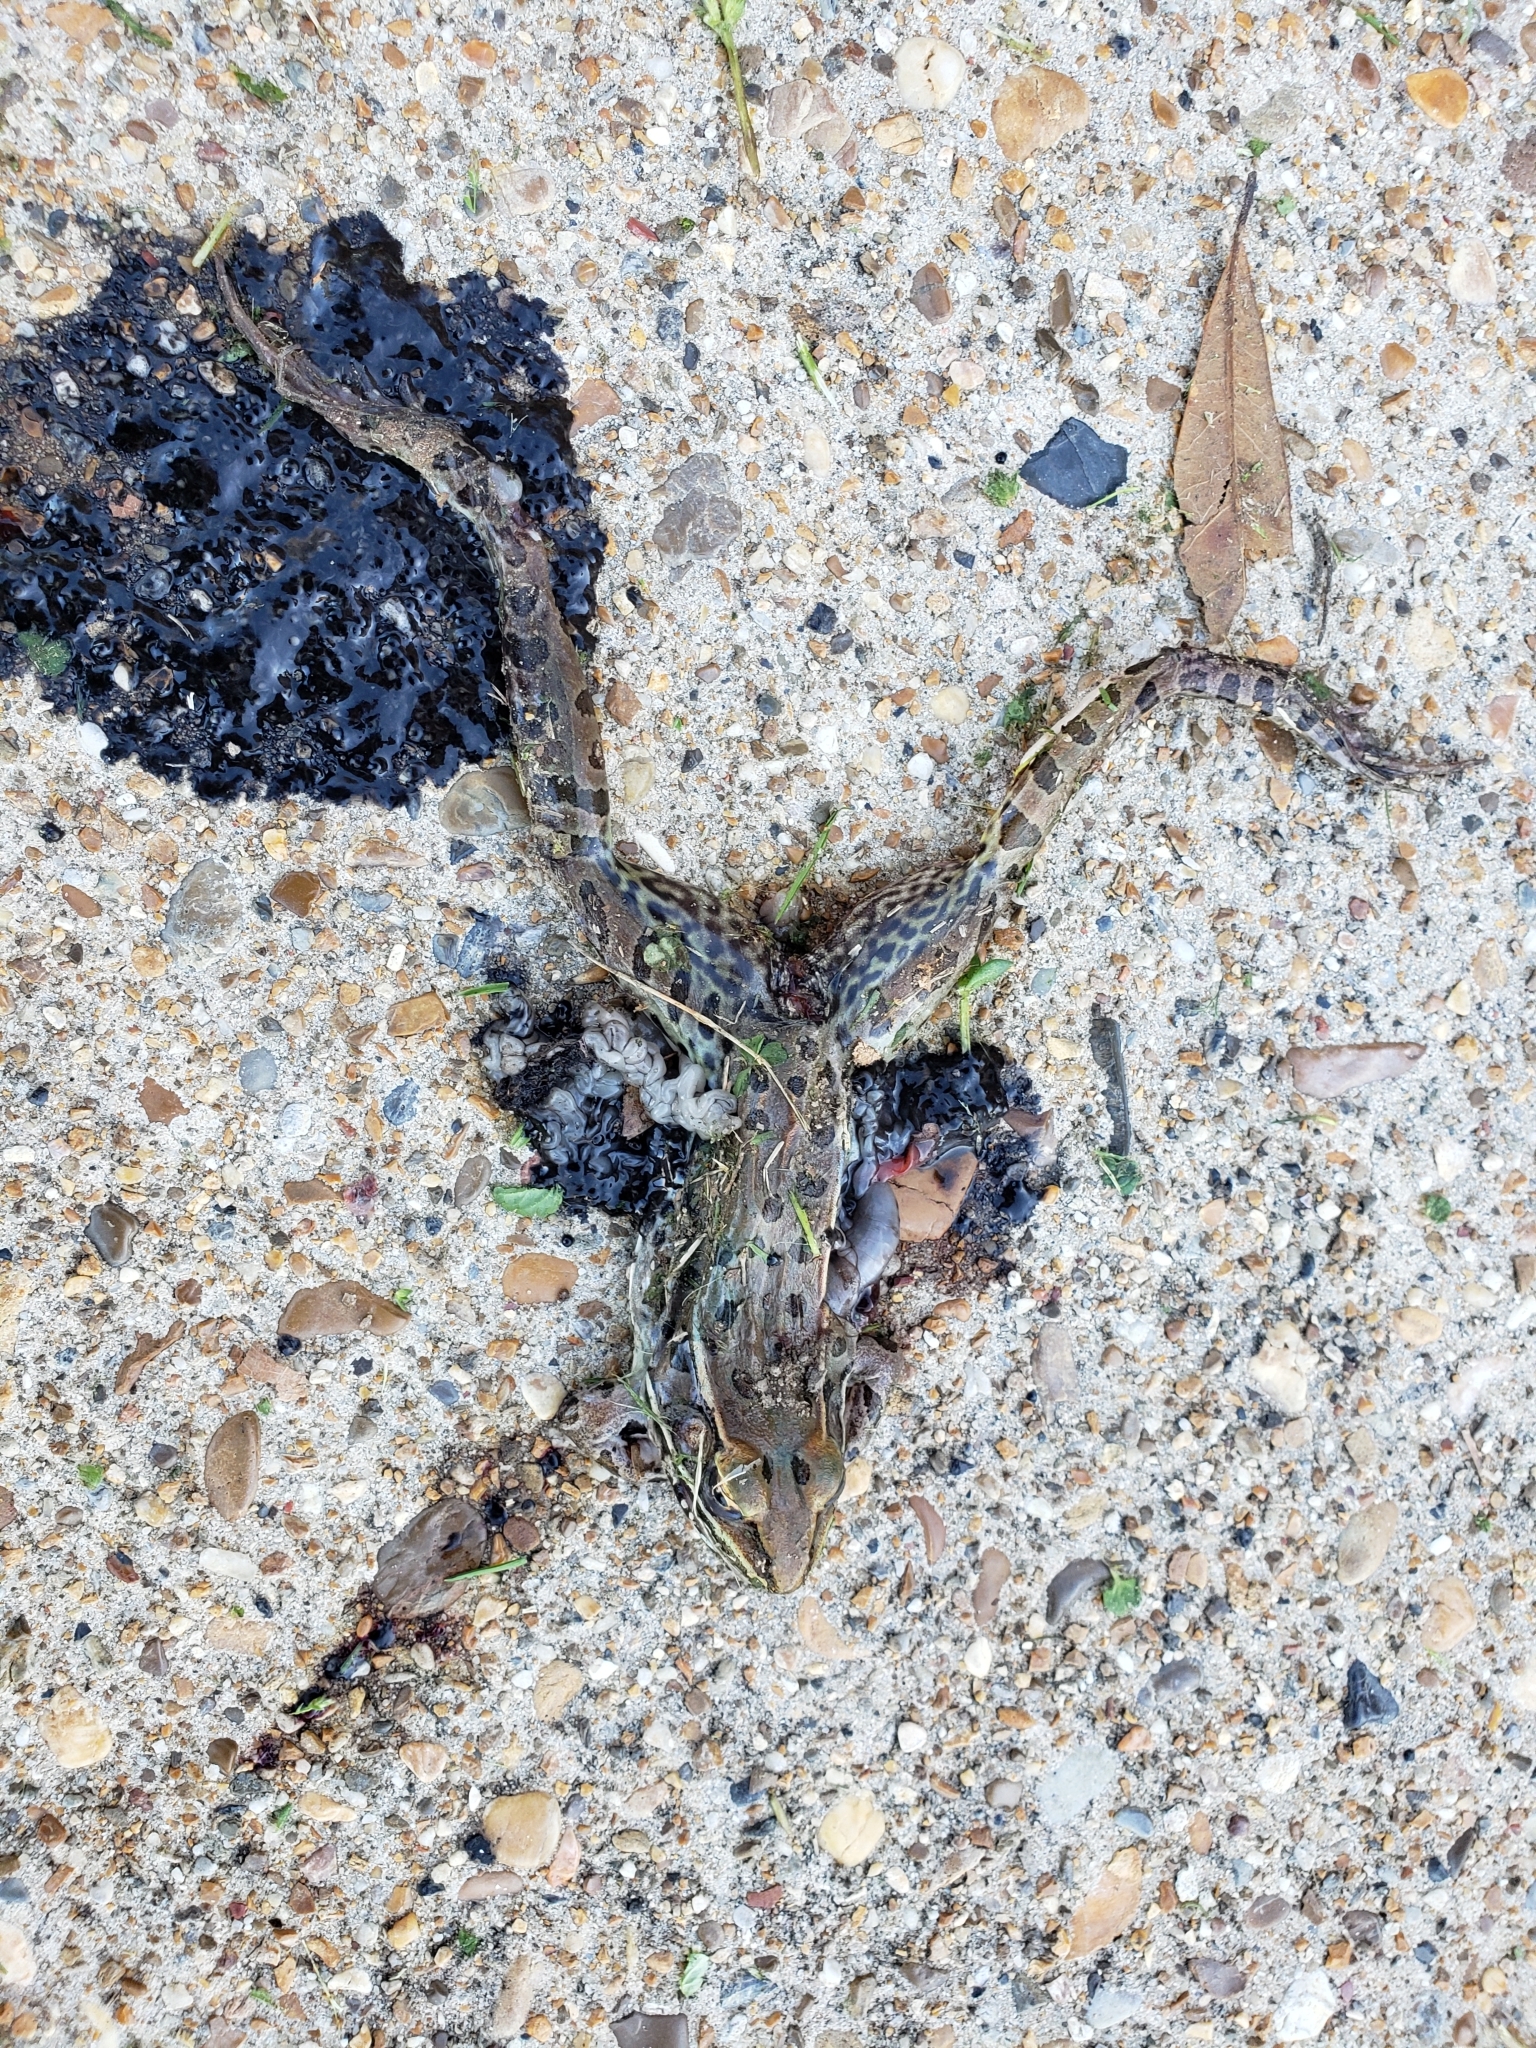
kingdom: Animalia
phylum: Chordata
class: Amphibia
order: Anura
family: Ranidae
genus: Lithobates
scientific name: Lithobates sphenocephalus
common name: Southern leopard frog
